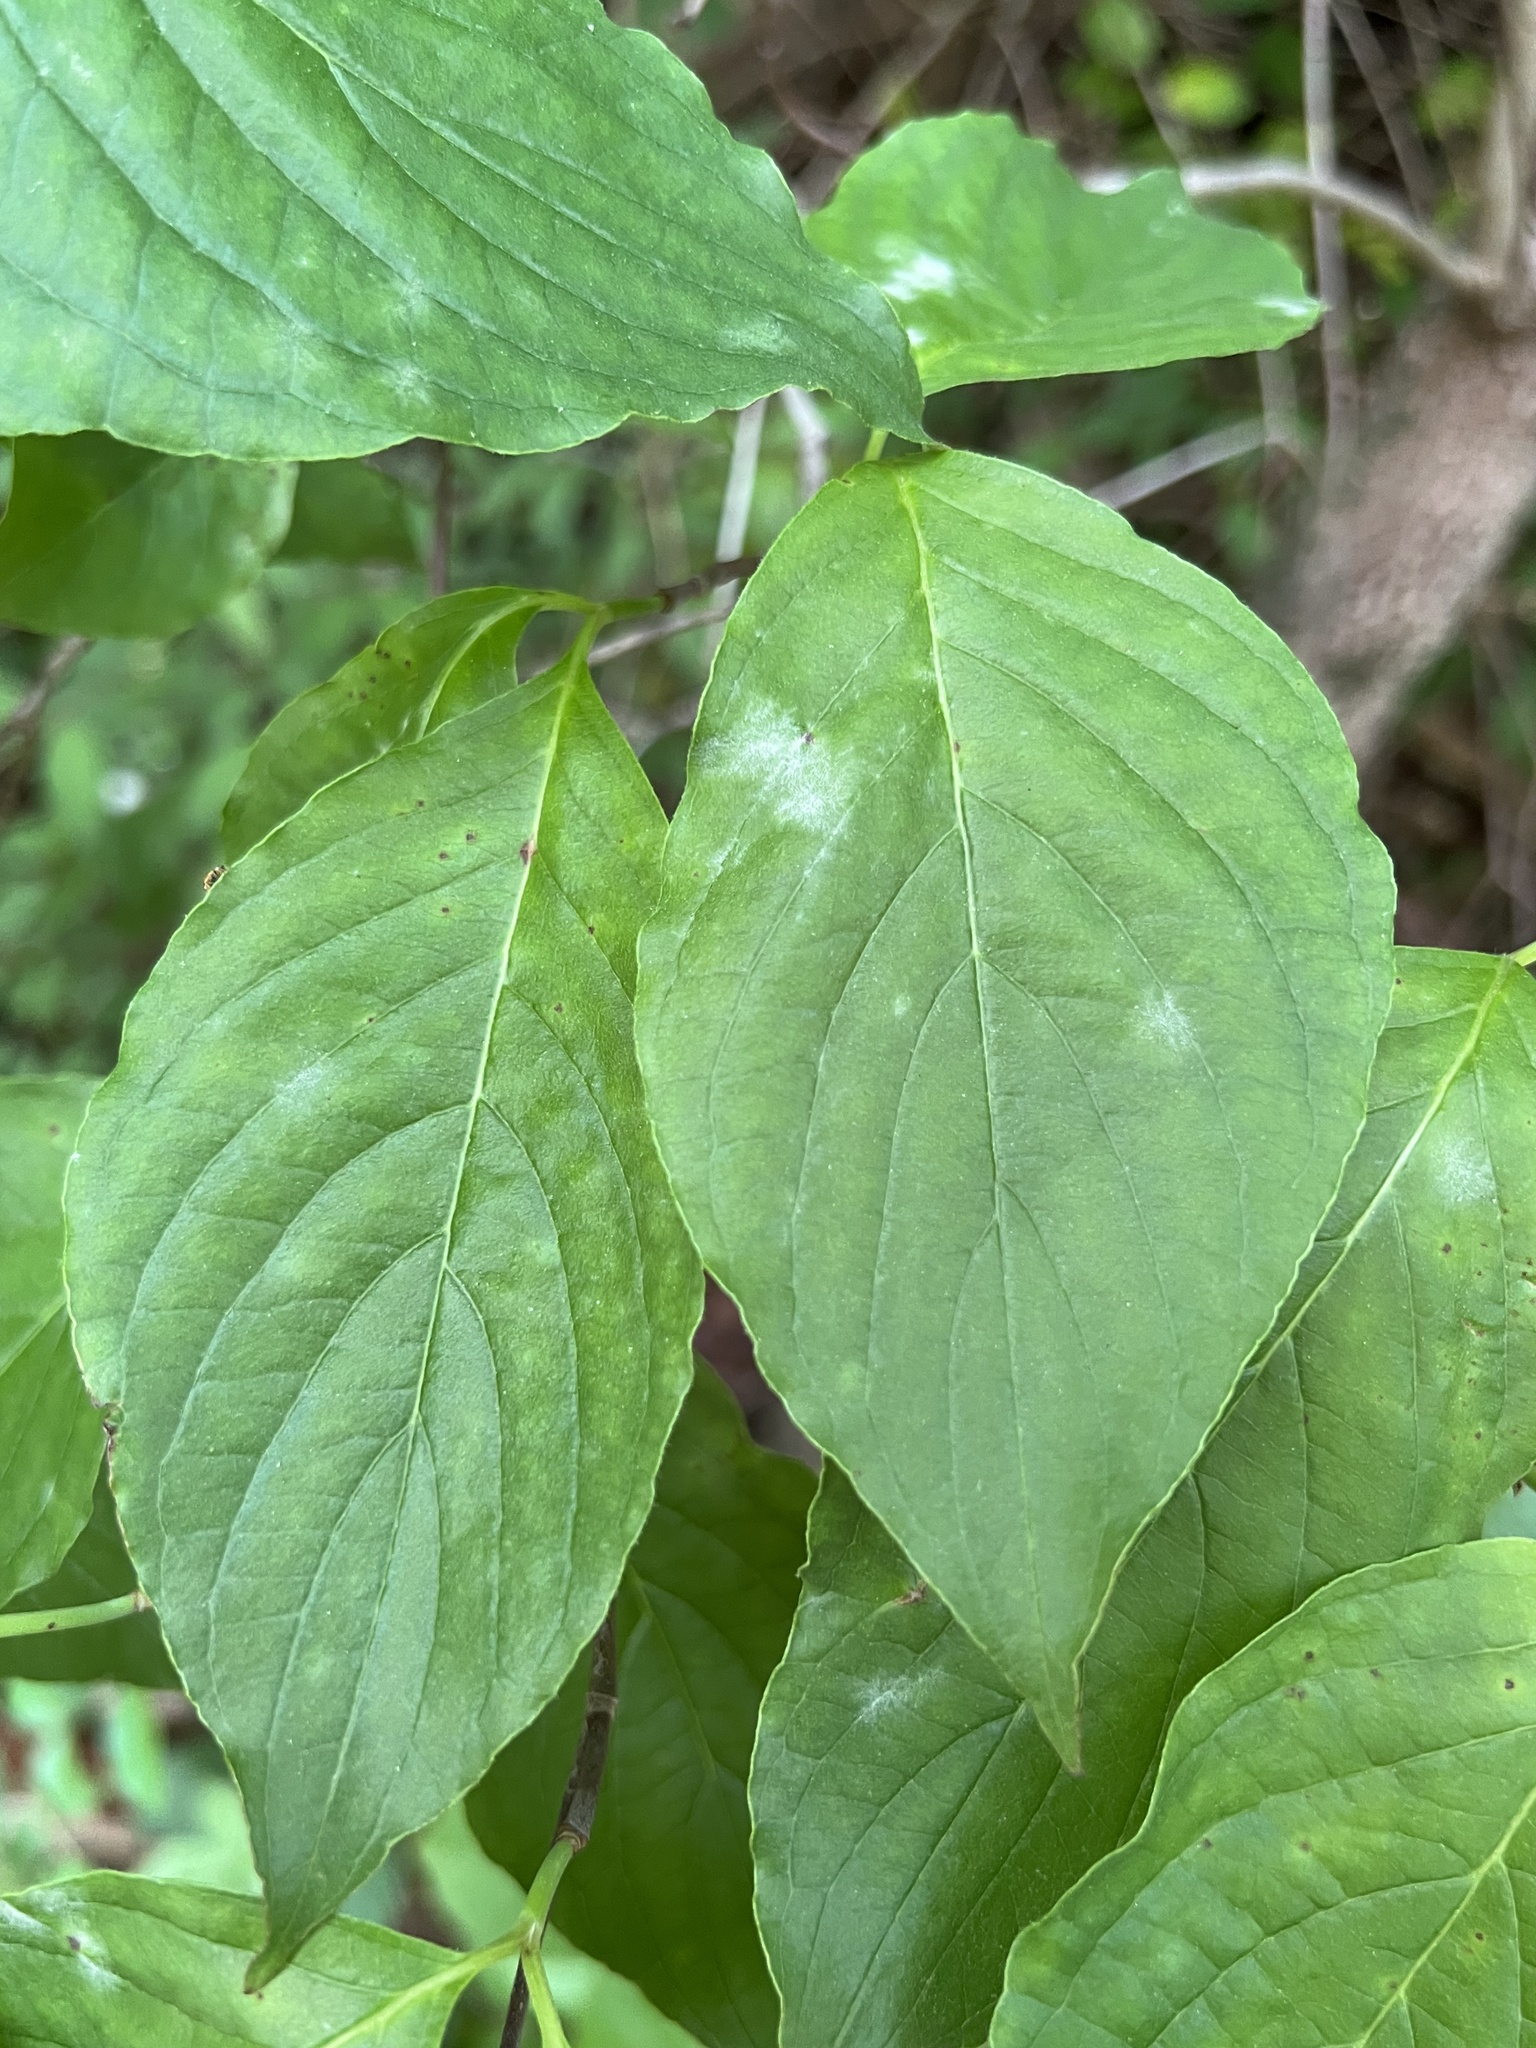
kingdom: Fungi
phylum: Ascomycota
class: Leotiomycetes
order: Helotiales
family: Erysiphaceae
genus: Erysiphe
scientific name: Erysiphe
